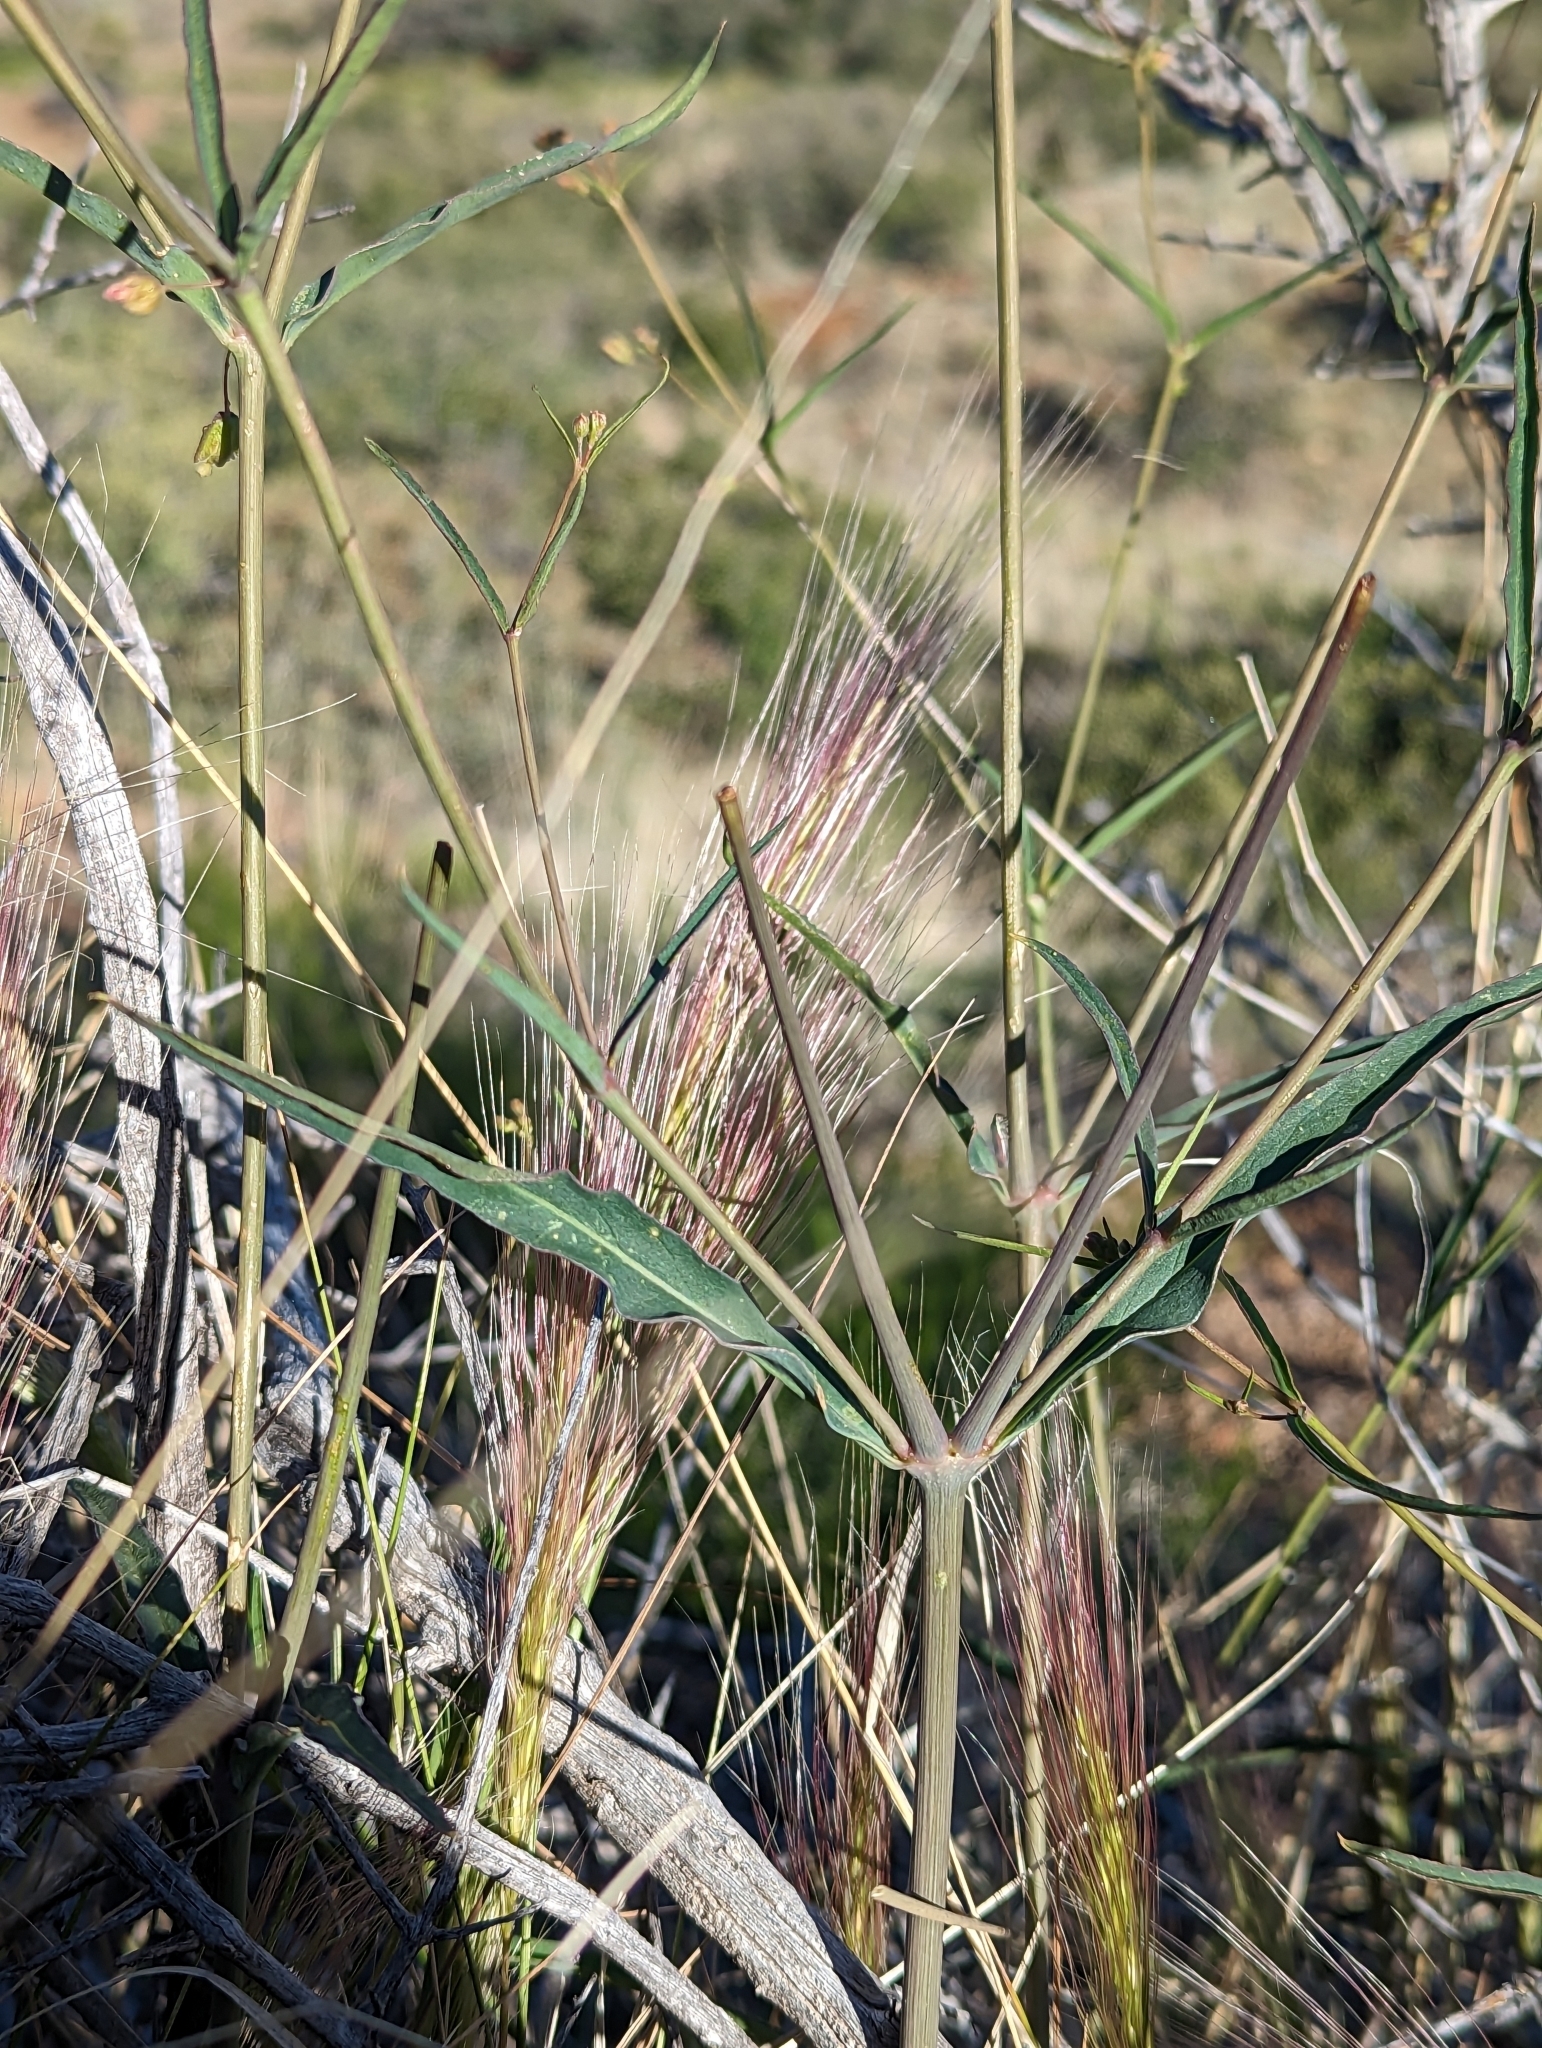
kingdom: Plantae
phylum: Tracheophyta
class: Magnoliopsida
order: Caryophyllales
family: Nyctaginaceae
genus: Mirabilis
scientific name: Mirabilis coccinea
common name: Scarlet four-o'clock
